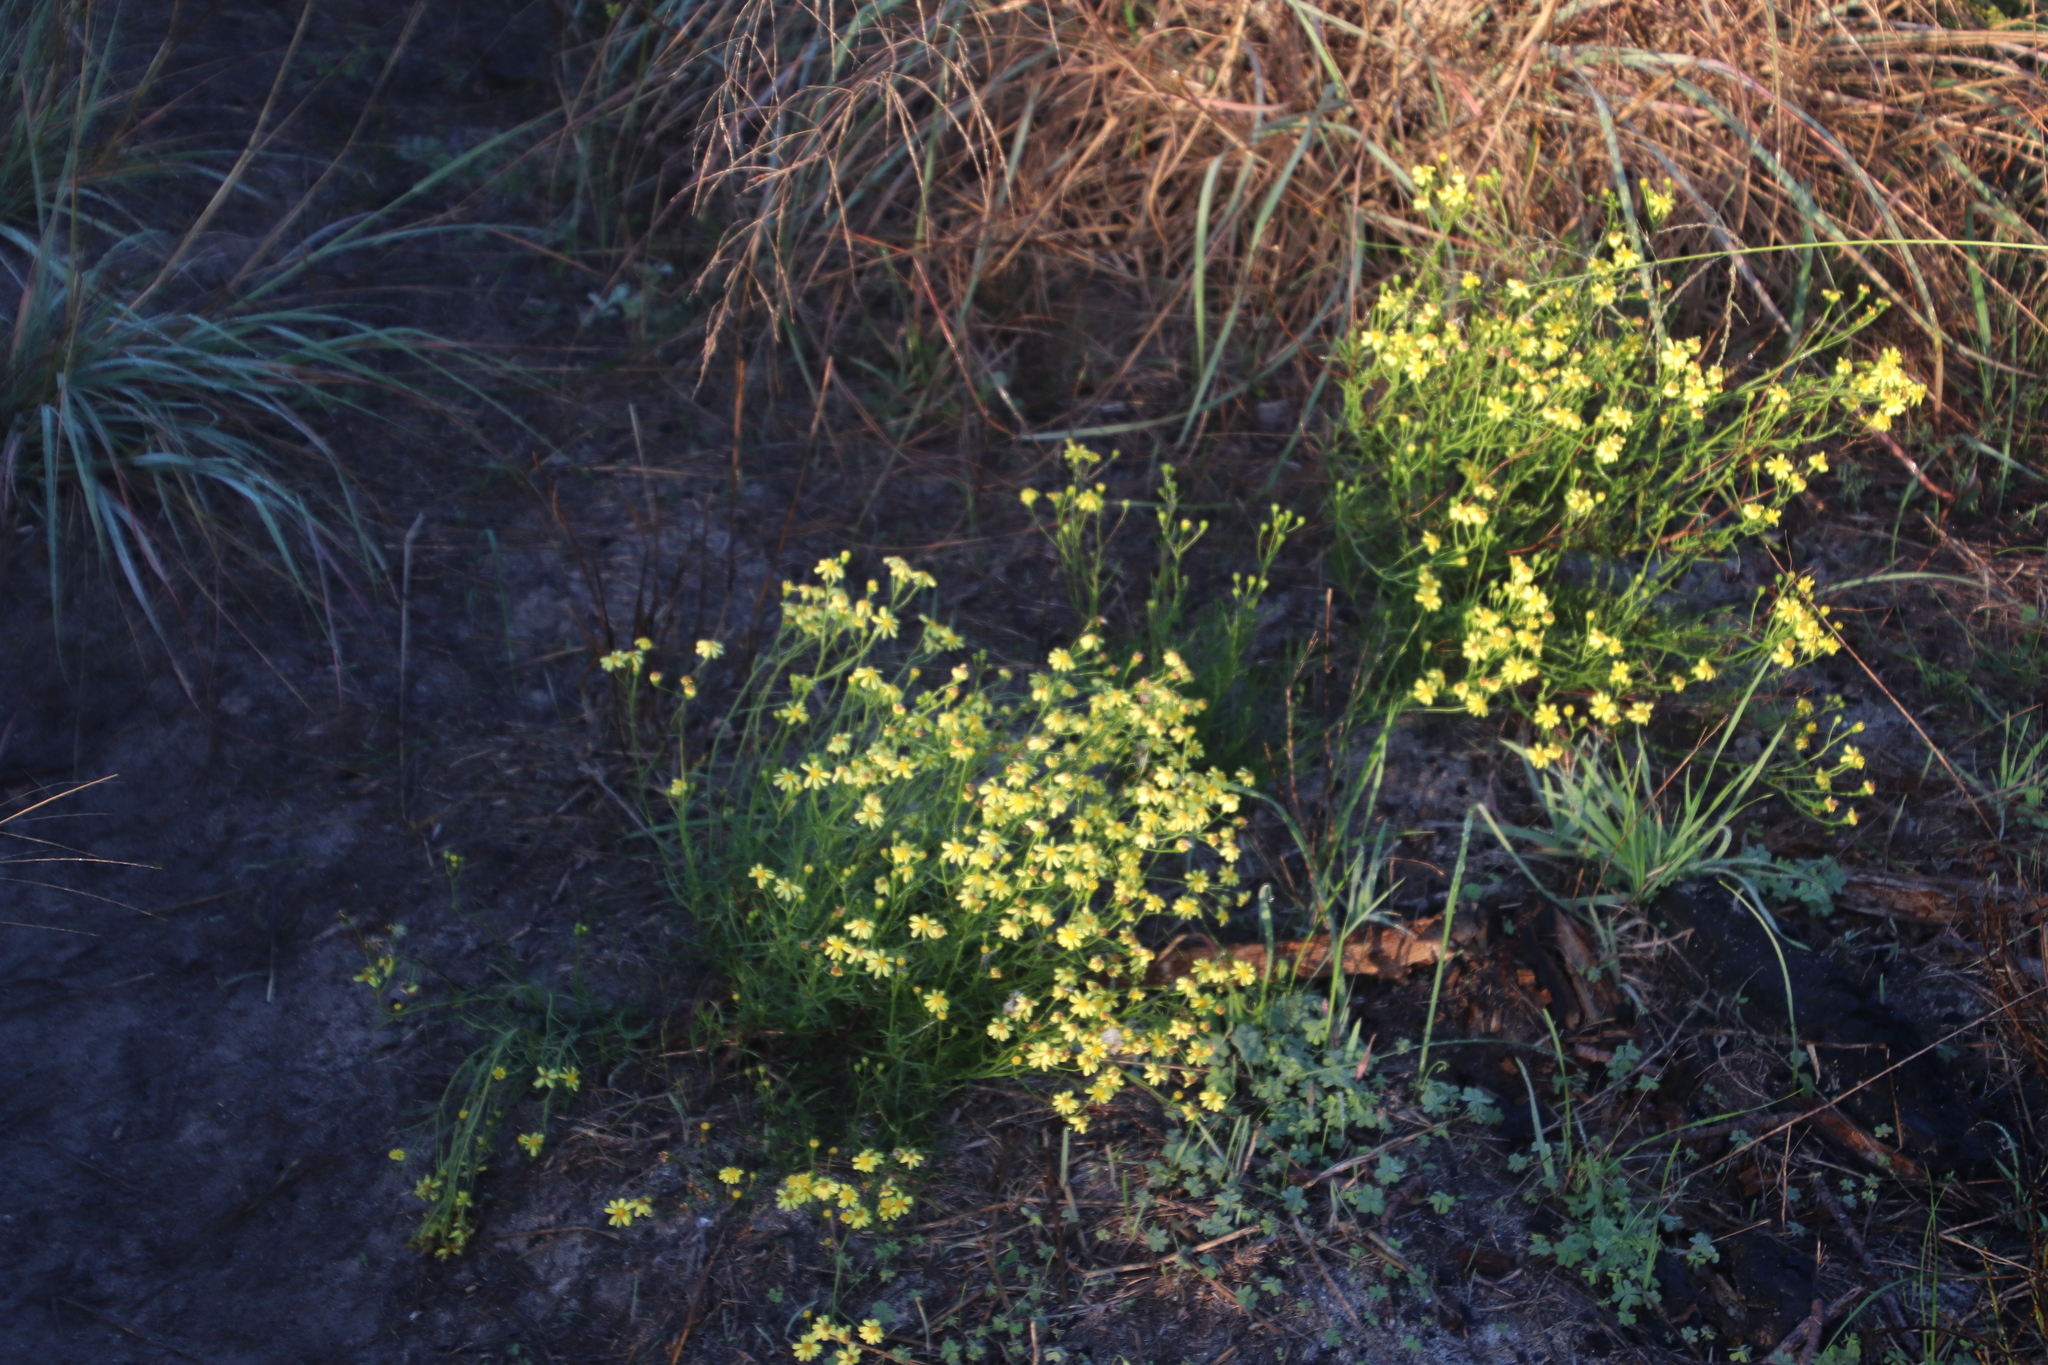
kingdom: Plantae
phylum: Tracheophyta
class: Magnoliopsida
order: Asterales
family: Asteraceae
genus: Senecio
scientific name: Senecio burchellii
